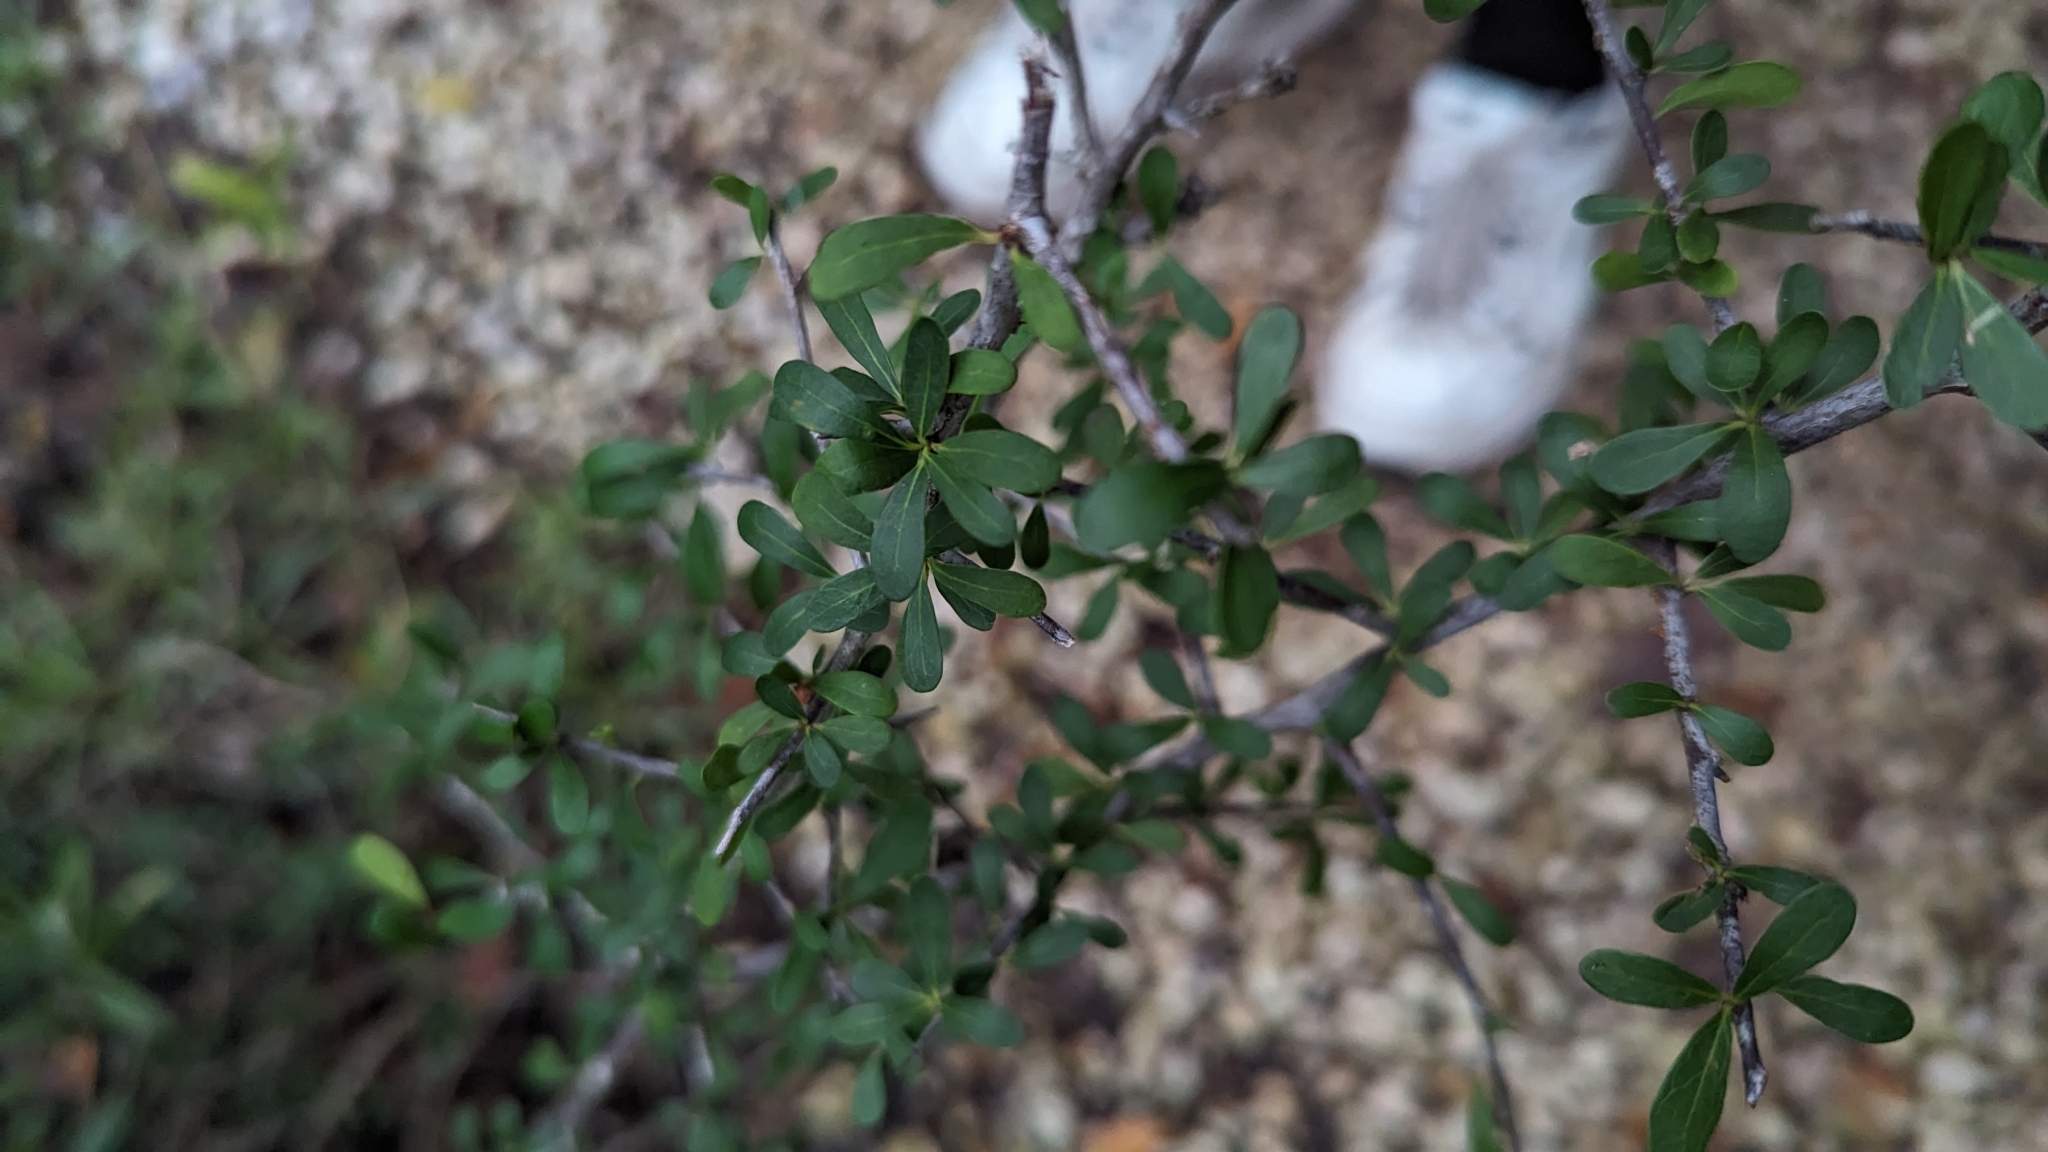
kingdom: Plantae
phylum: Tracheophyta
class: Magnoliopsida
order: Ericales
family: Sapotaceae
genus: Sideroxylon
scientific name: Sideroxylon celastrinum
